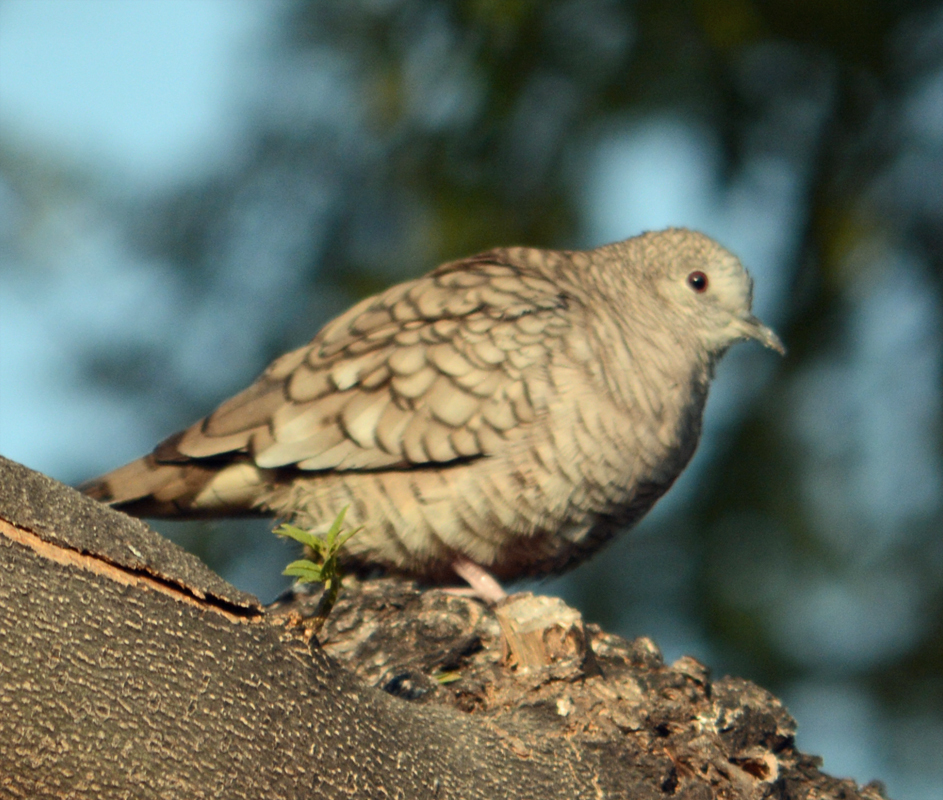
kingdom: Animalia
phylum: Chordata
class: Aves
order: Columbiformes
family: Columbidae
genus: Columbina
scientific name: Columbina inca
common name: Inca dove
